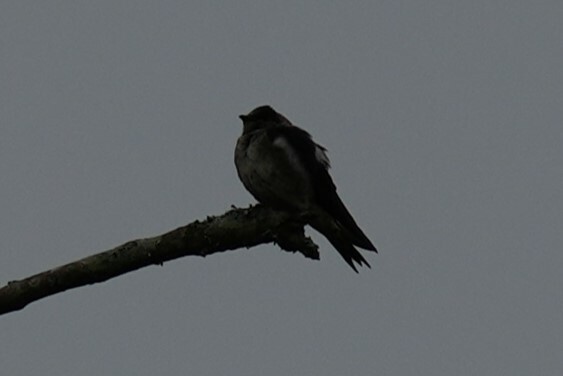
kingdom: Animalia
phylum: Chordata
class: Aves
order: Passeriformes
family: Hirundinidae
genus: Progne
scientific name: Progne subis
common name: Purple martin
